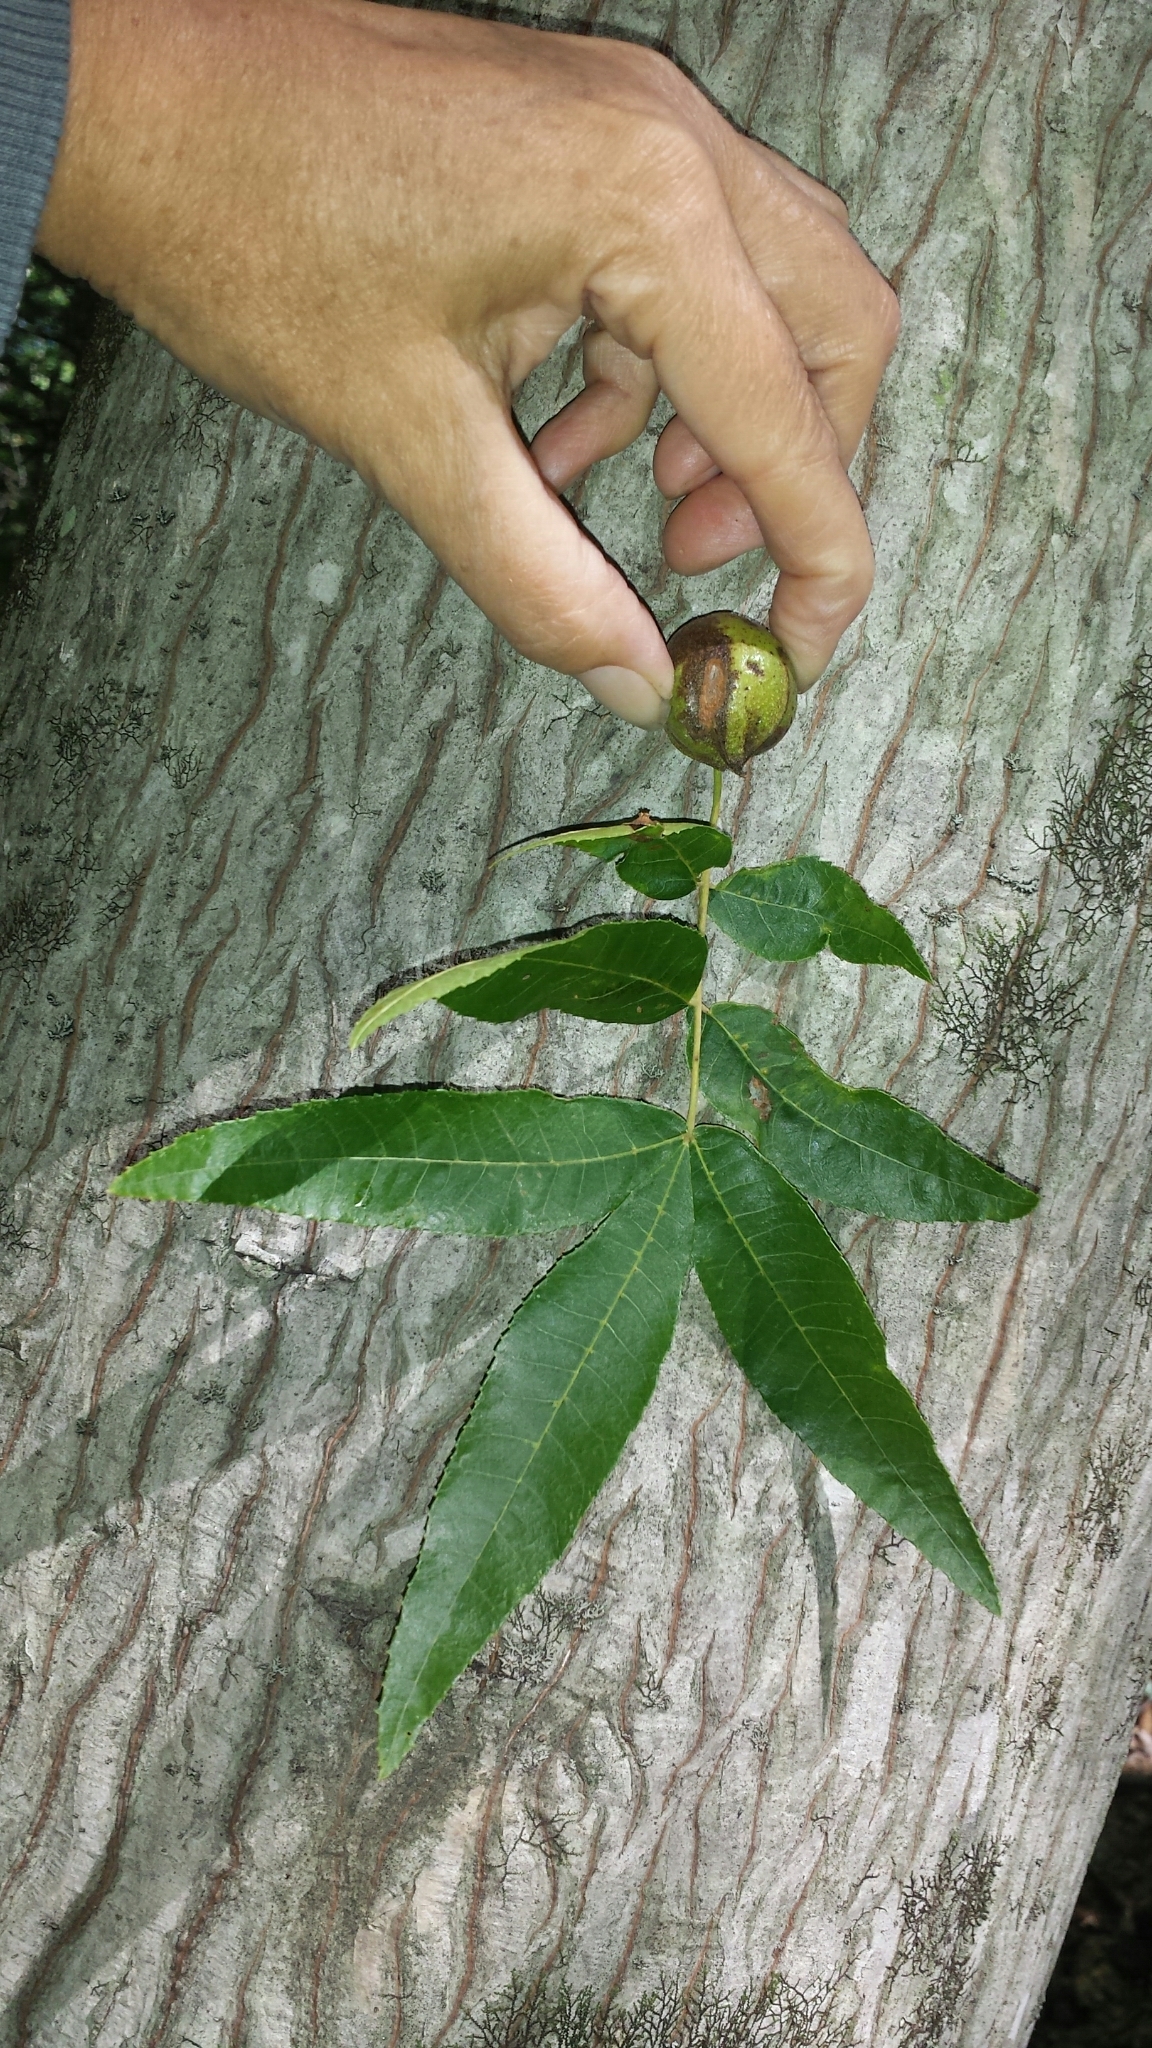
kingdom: Plantae
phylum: Tracheophyta
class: Magnoliopsida
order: Fagales
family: Juglandaceae
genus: Carya
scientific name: Carya cordiformis
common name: Bitternut hickory
